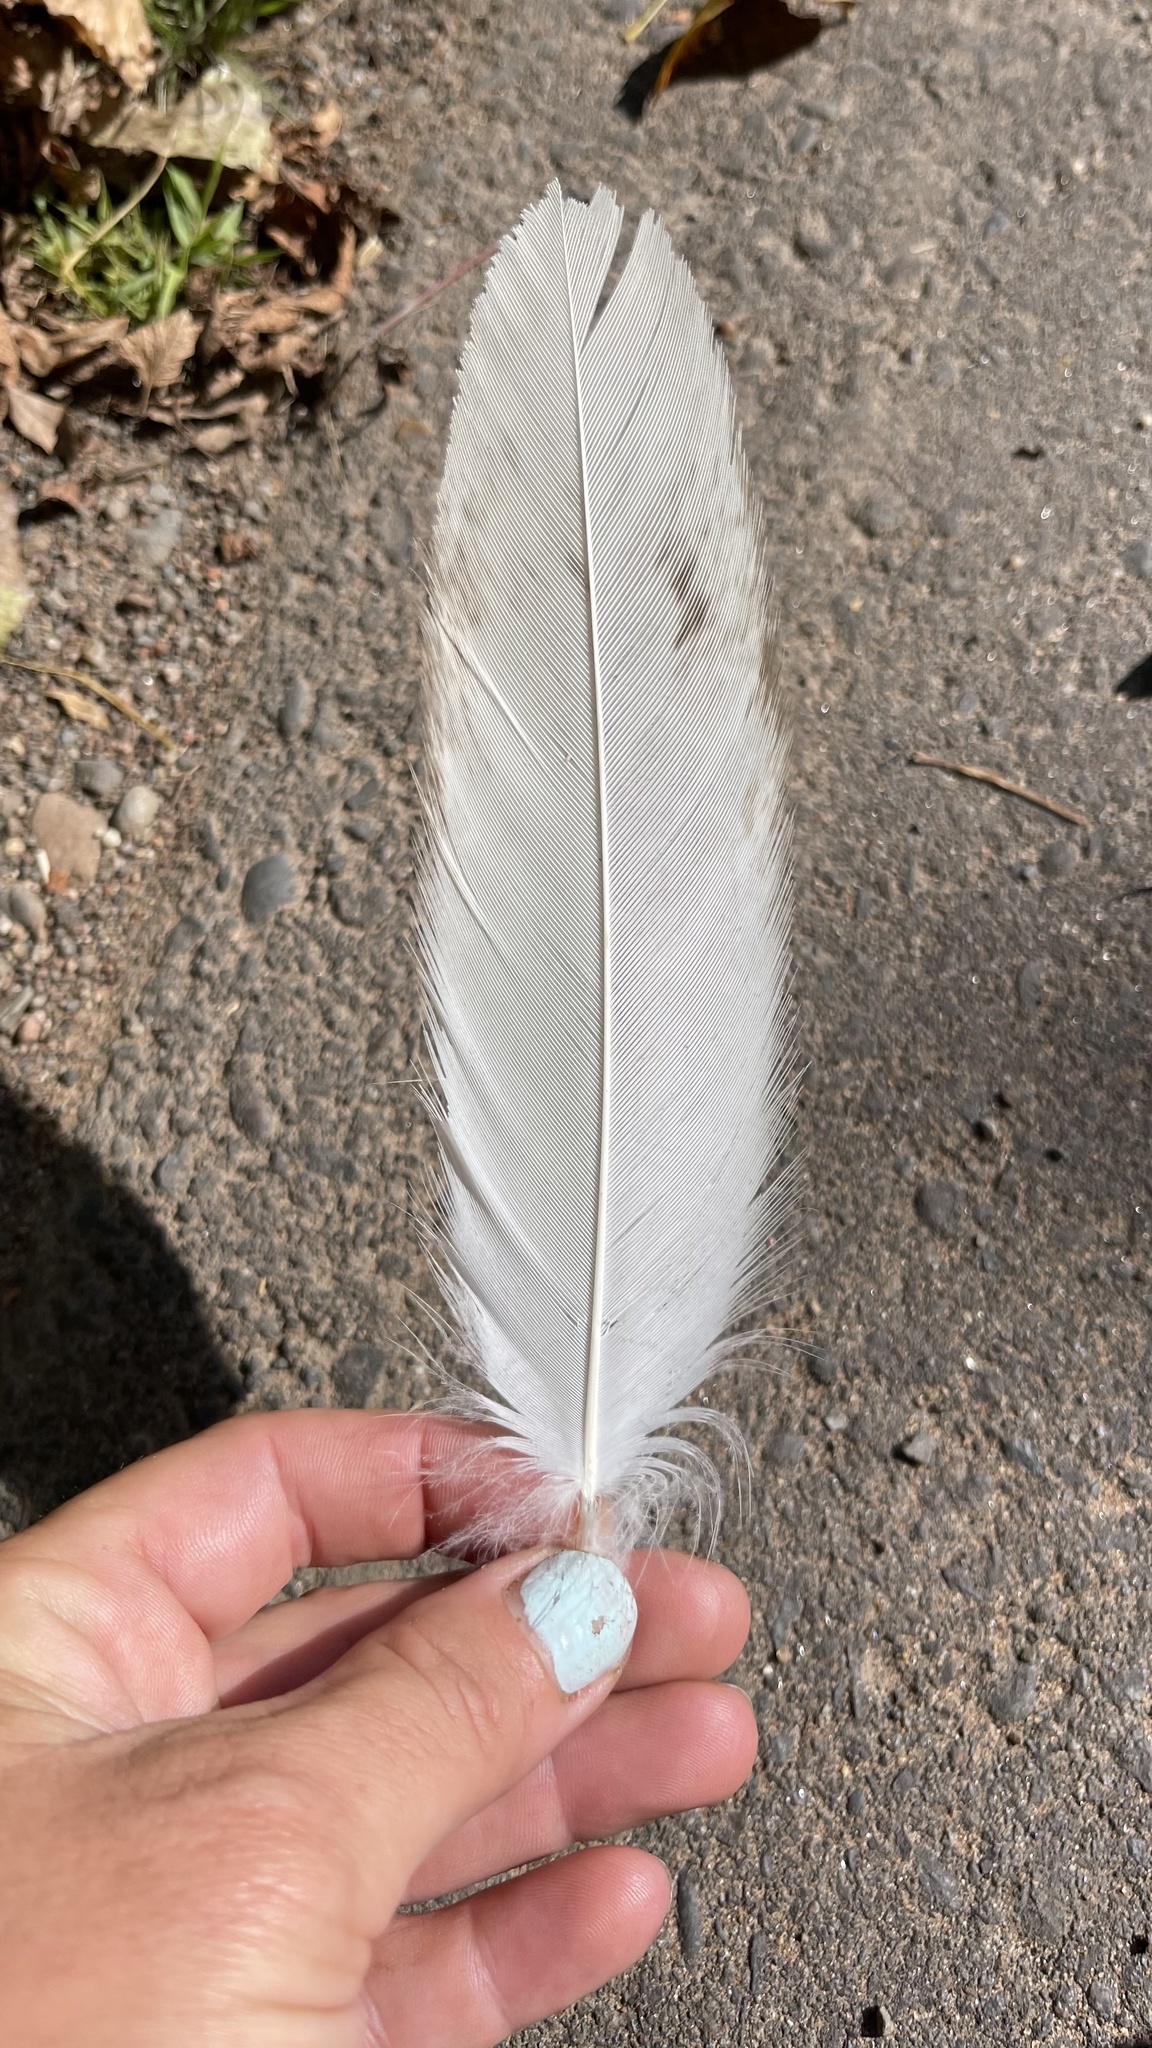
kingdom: Animalia
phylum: Chordata
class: Aves
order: Accipitriformes
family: Accipitridae
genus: Haliaeetus
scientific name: Haliaeetus leucocephalus
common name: Bald eagle
